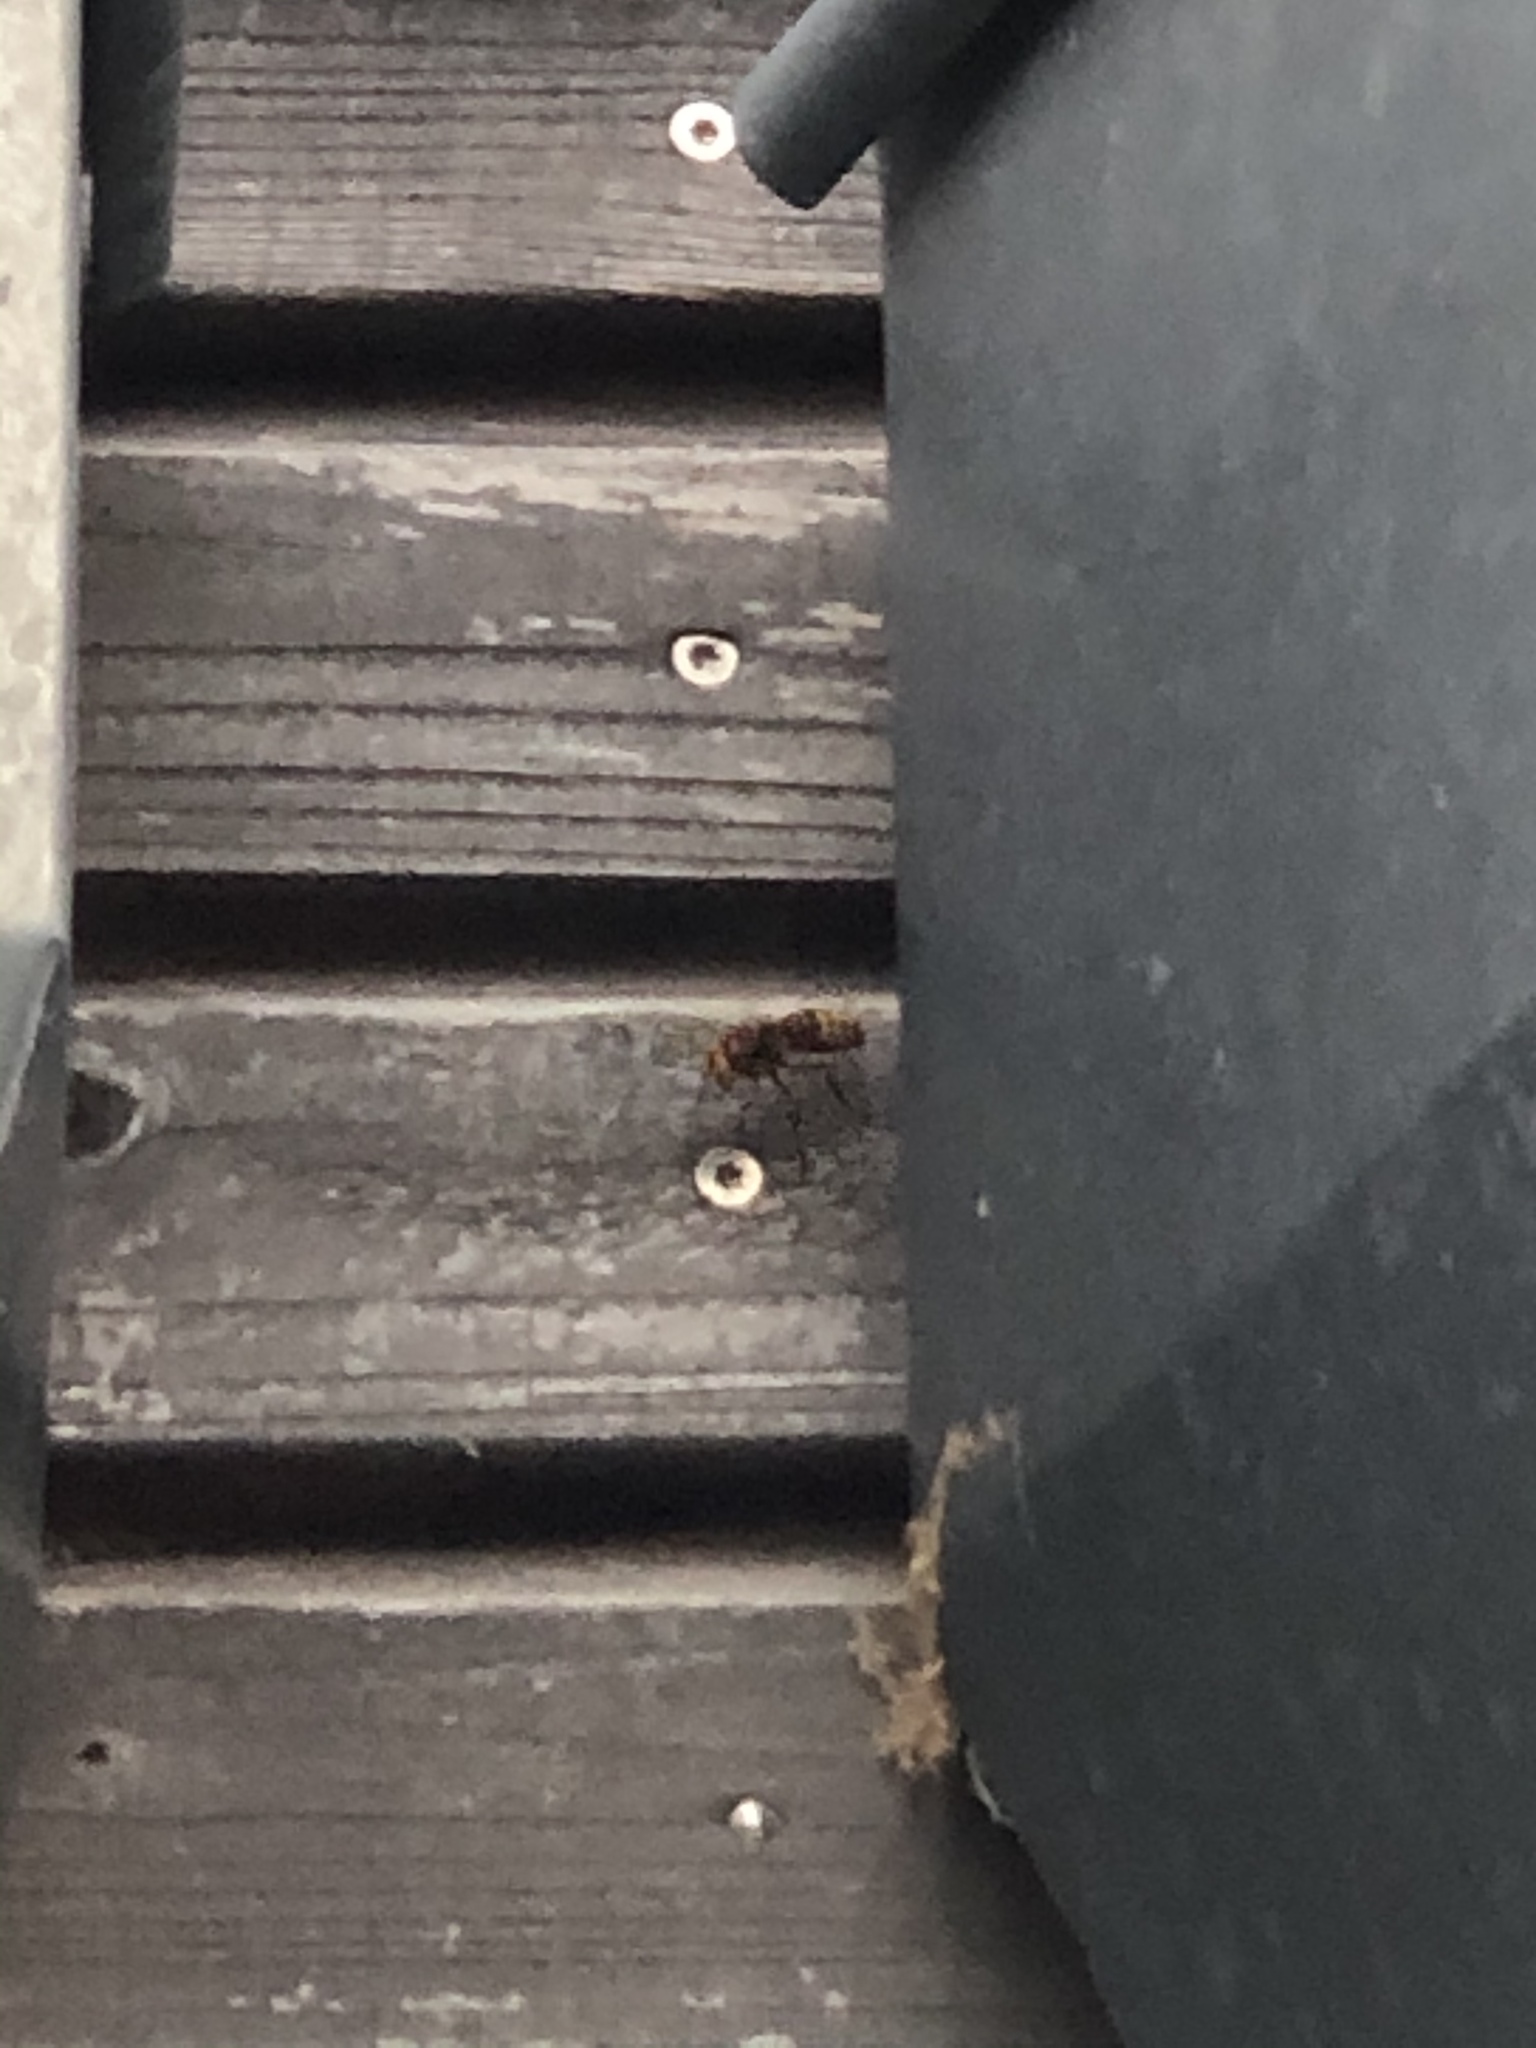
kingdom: Animalia
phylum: Arthropoda
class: Insecta
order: Hymenoptera
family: Vespidae
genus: Vespa
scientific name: Vespa crabro
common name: Hornet
